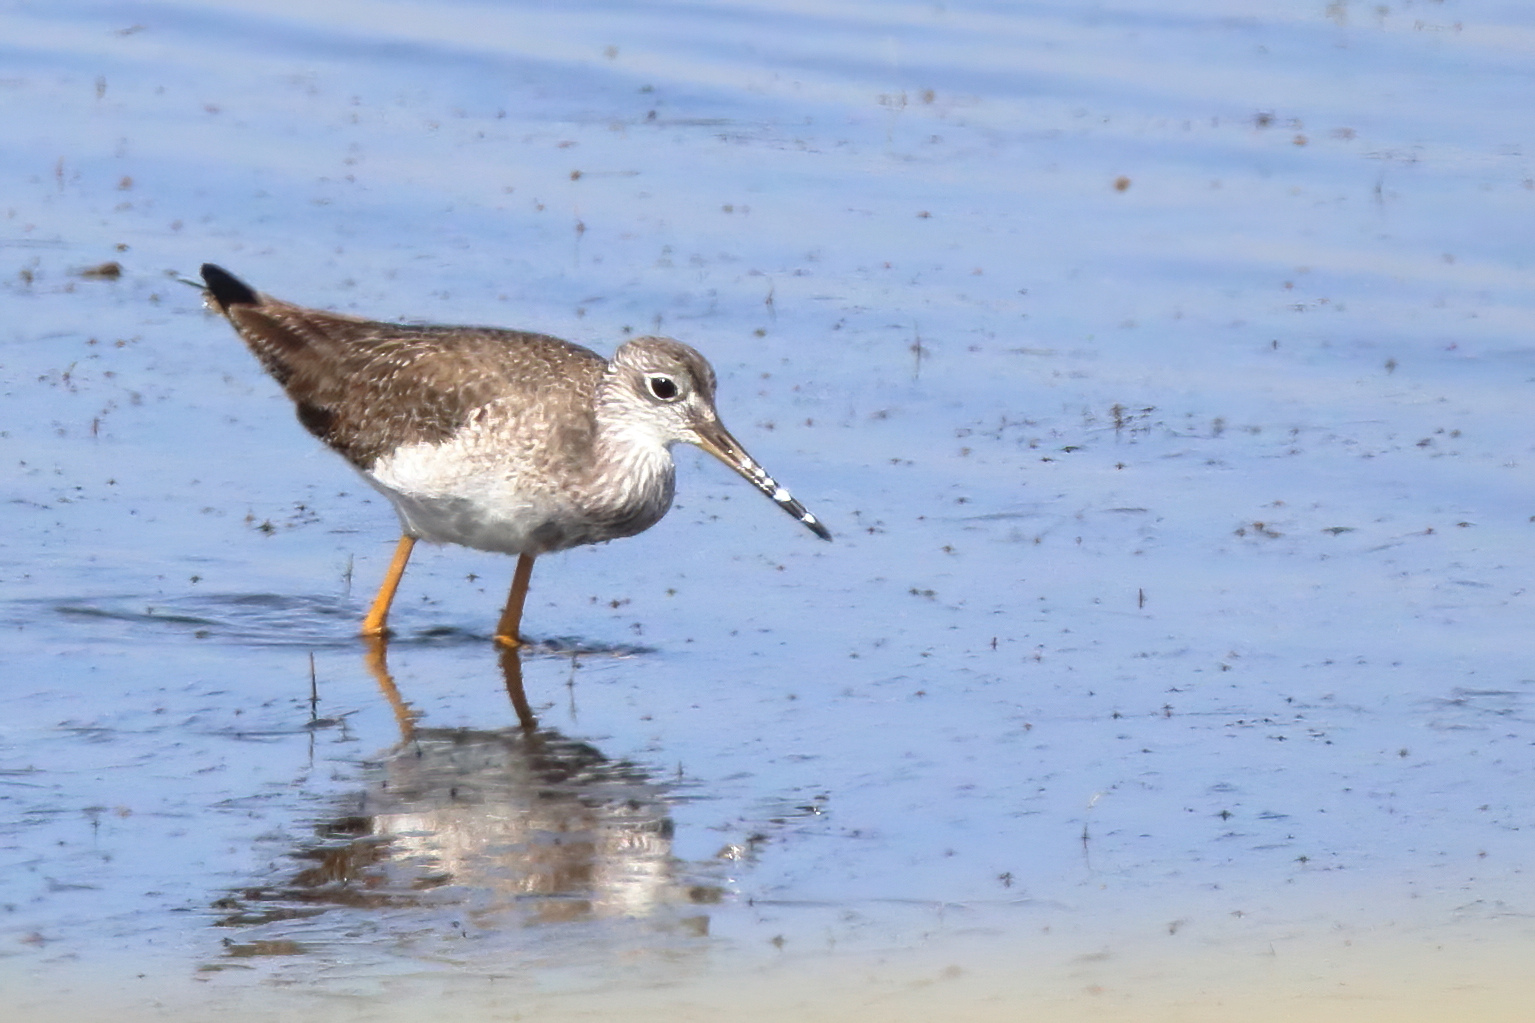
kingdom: Animalia
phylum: Chordata
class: Aves
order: Charadriiformes
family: Scolopacidae
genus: Tringa
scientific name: Tringa melanoleuca
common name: Greater yellowlegs
